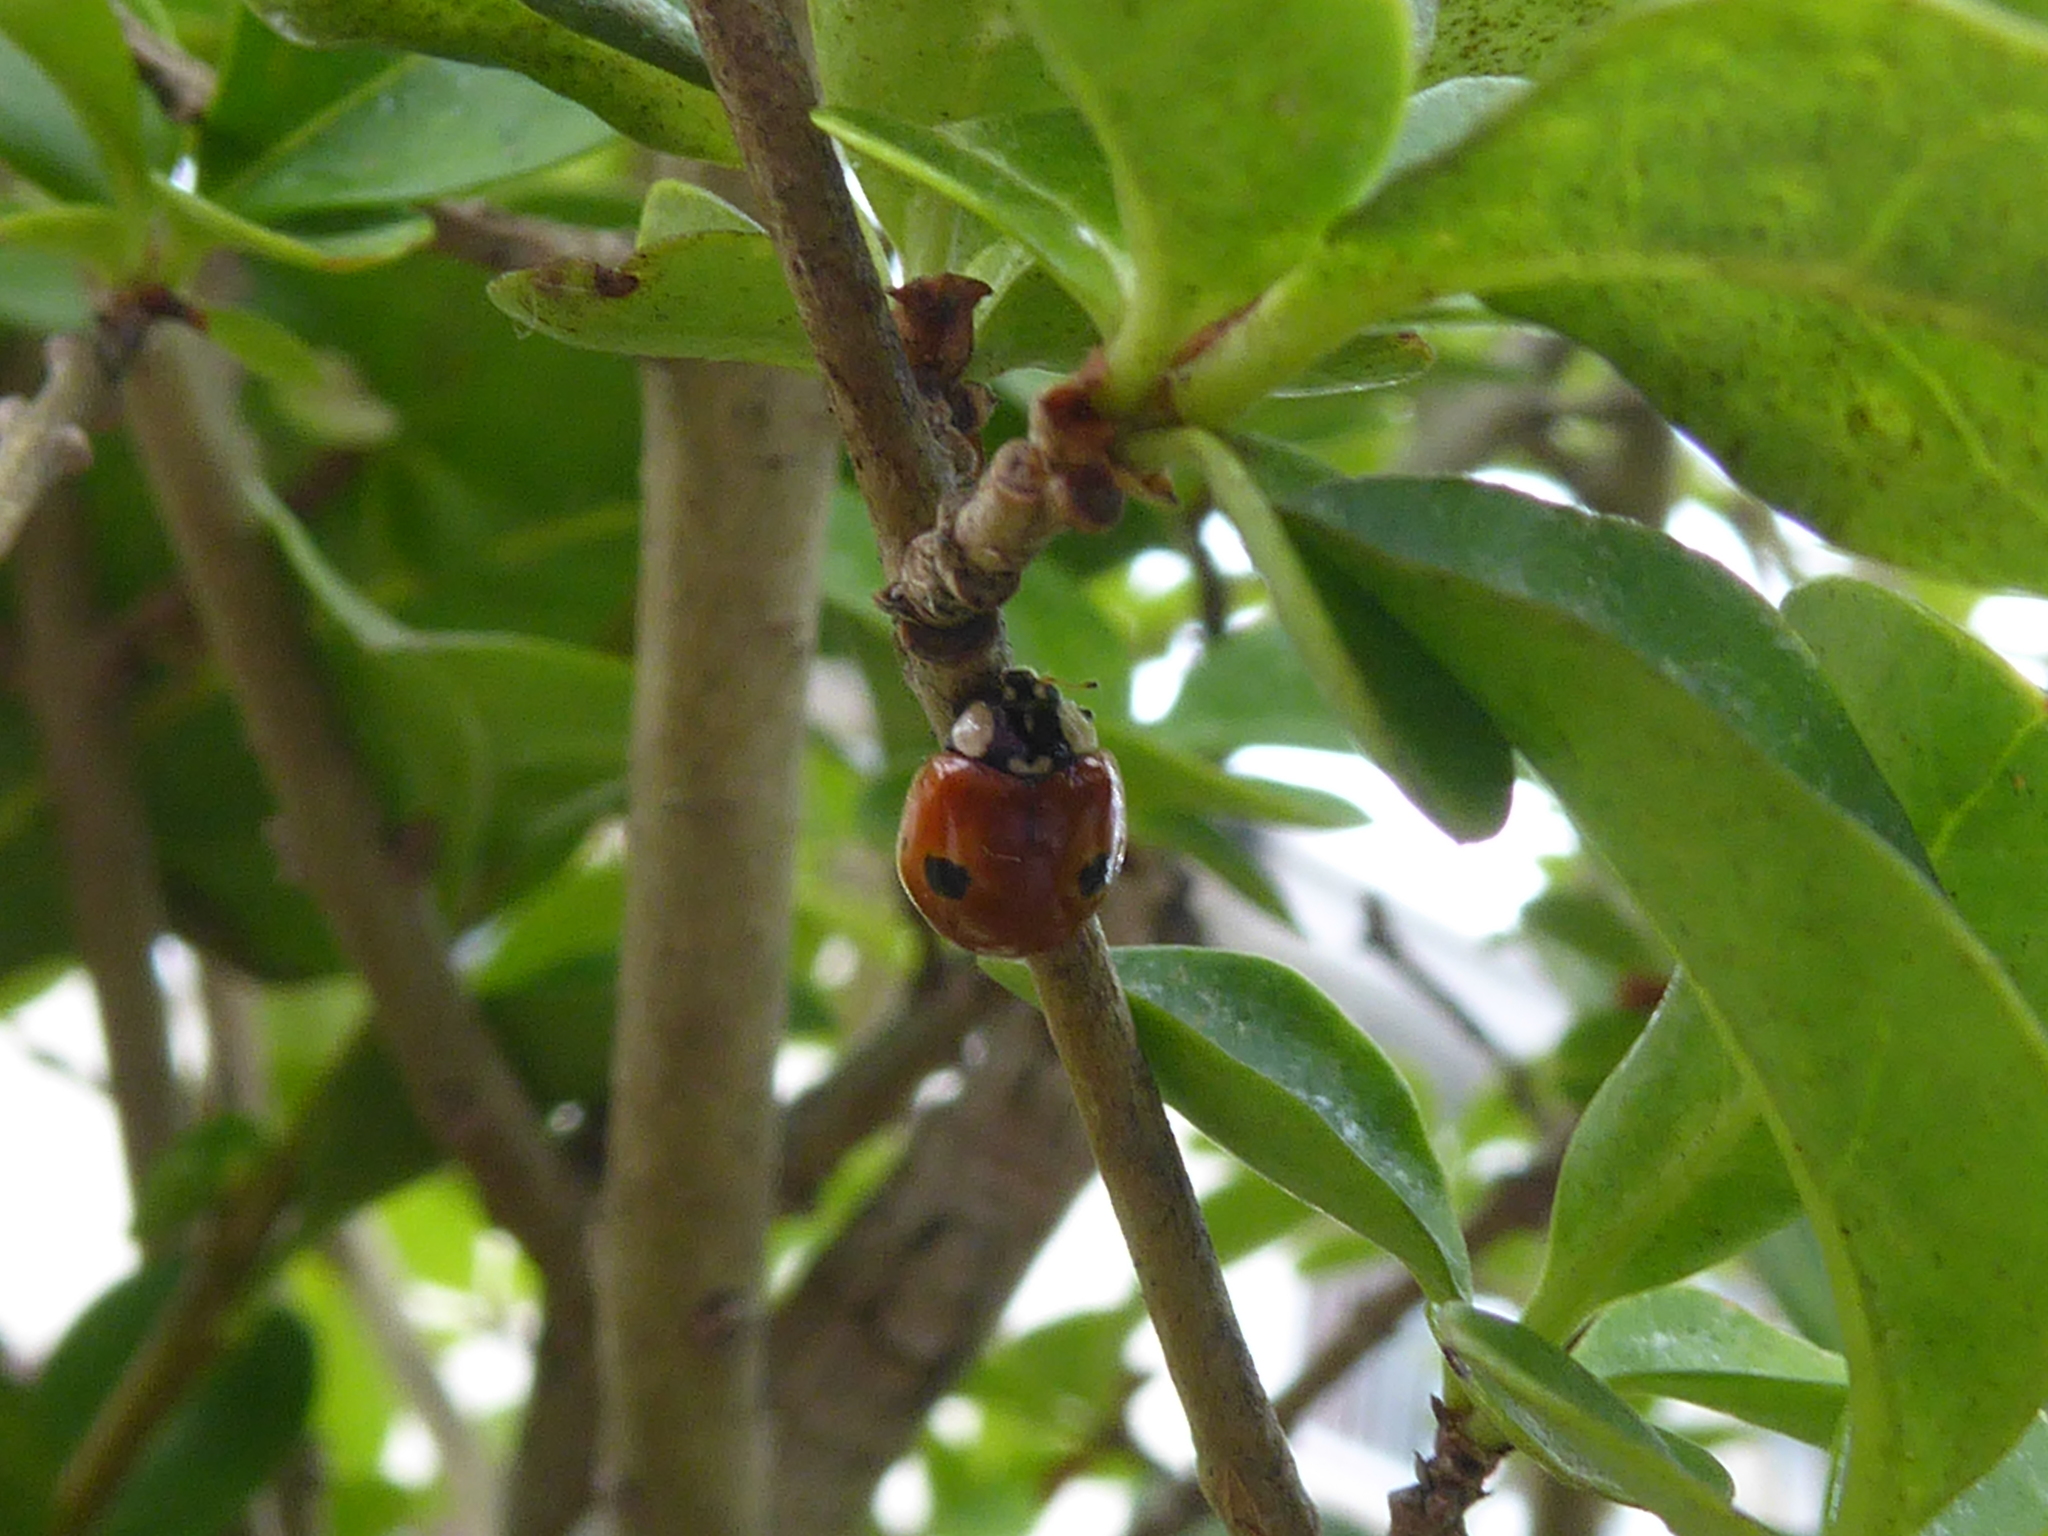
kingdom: Animalia
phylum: Arthropoda
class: Insecta
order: Coleoptera
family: Coccinellidae
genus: Adalia
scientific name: Adalia bipunctata
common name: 2-spot ladybird
